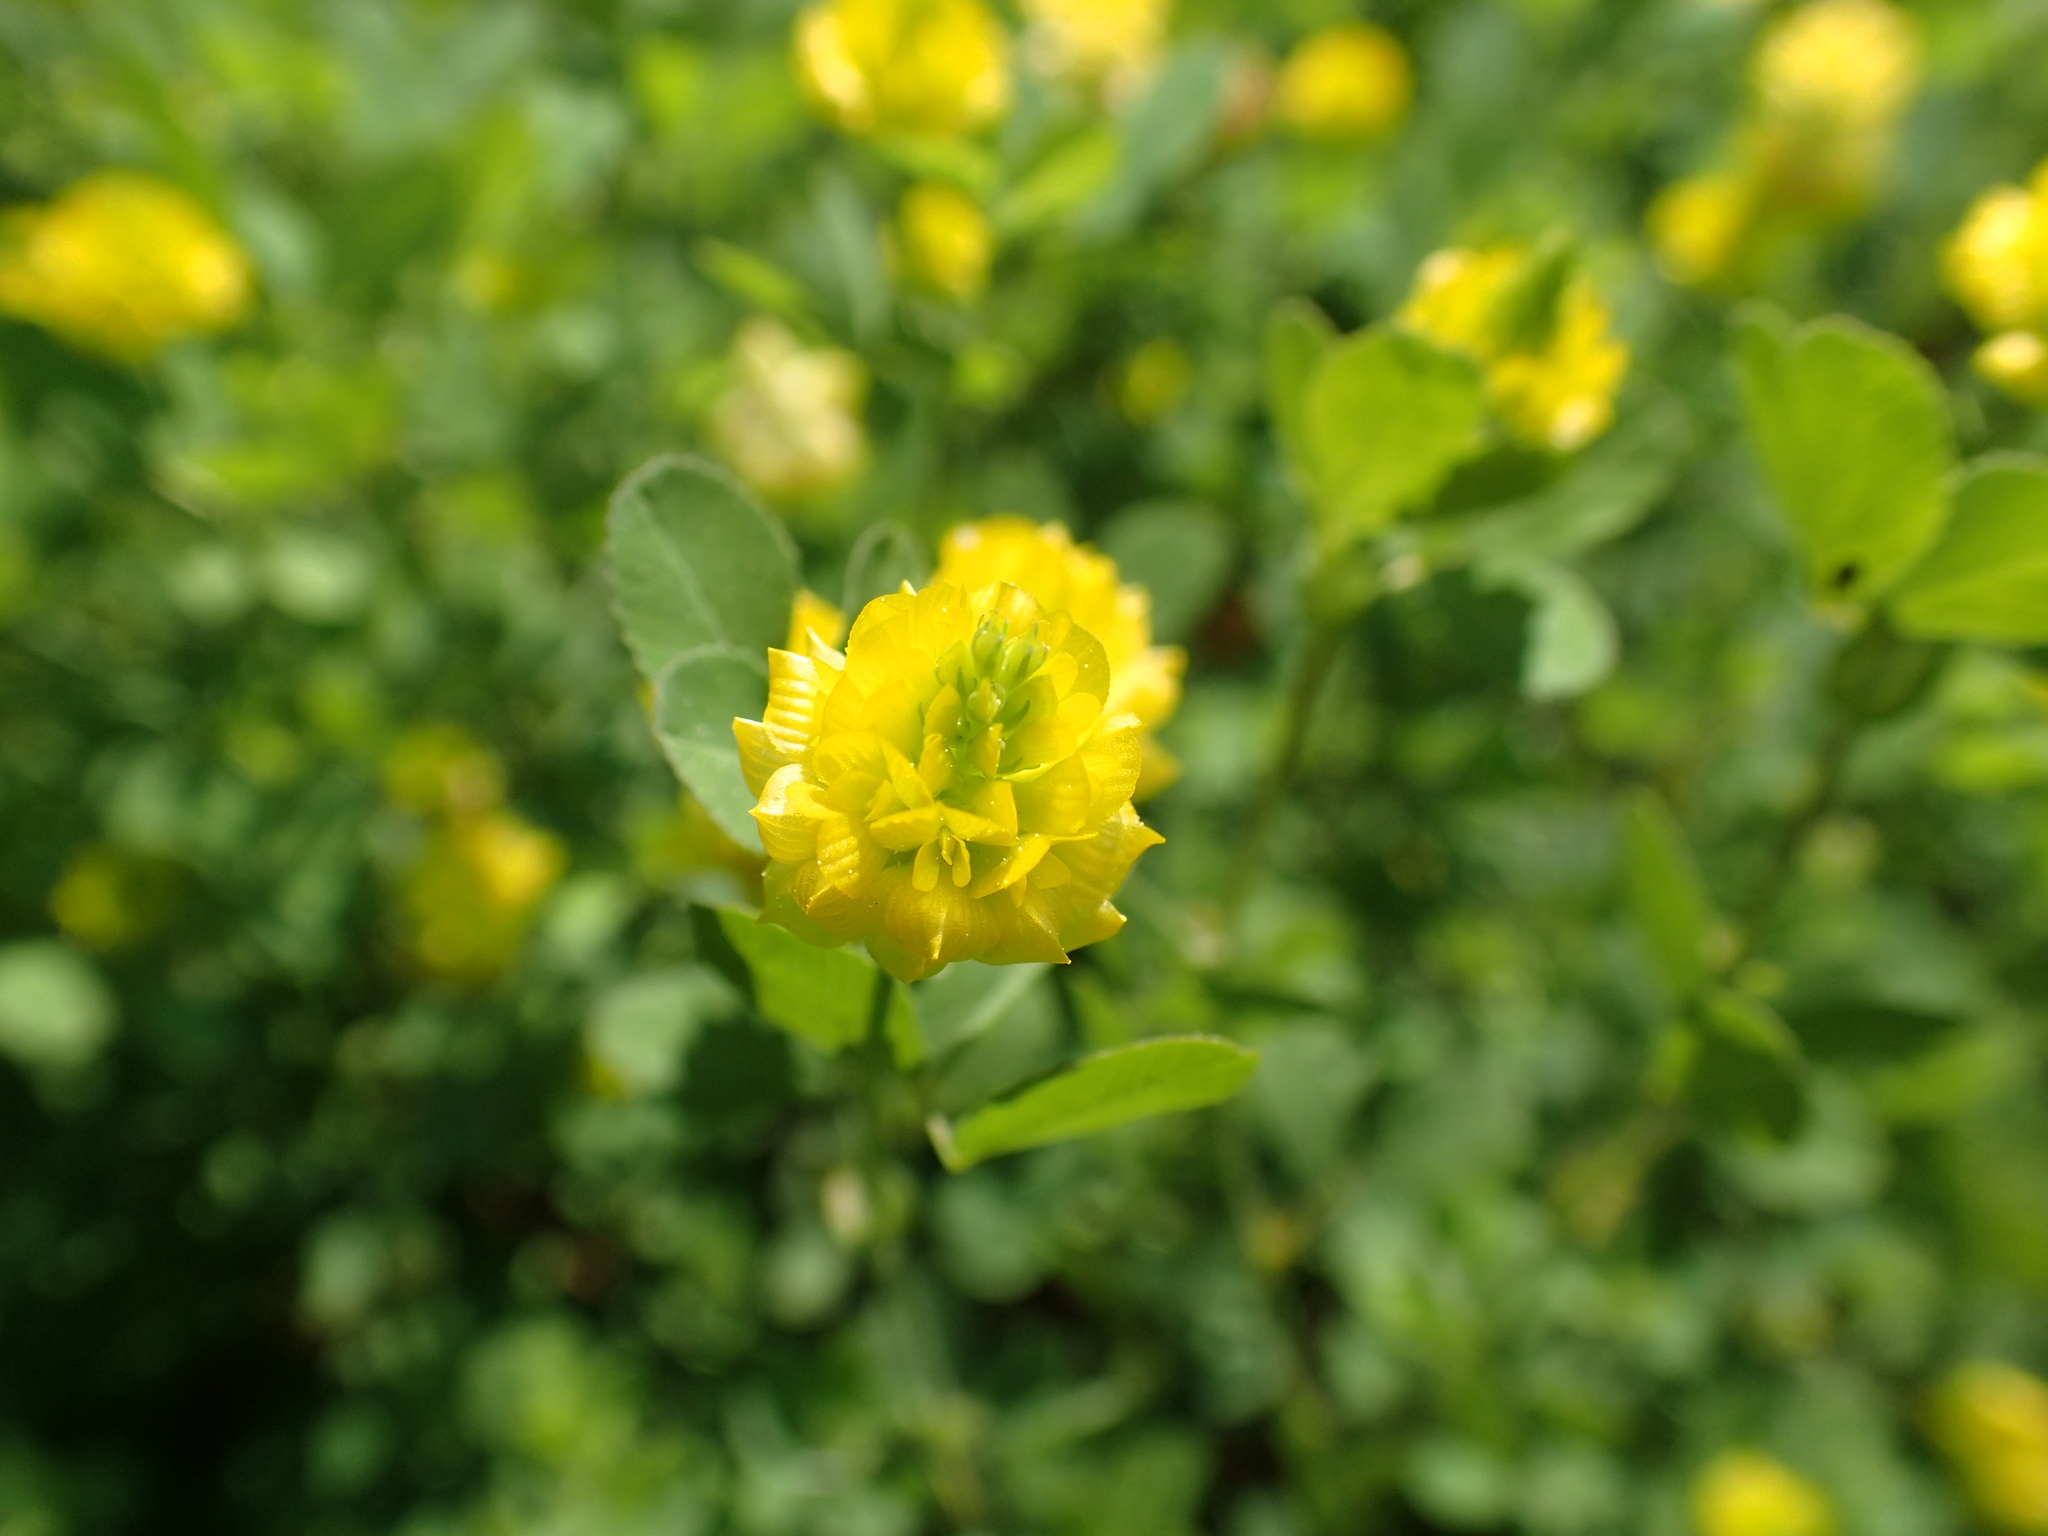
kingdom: Plantae
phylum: Tracheophyta
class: Magnoliopsida
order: Fabales
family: Fabaceae
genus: Trifolium
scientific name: Trifolium campestre
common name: Field clover
